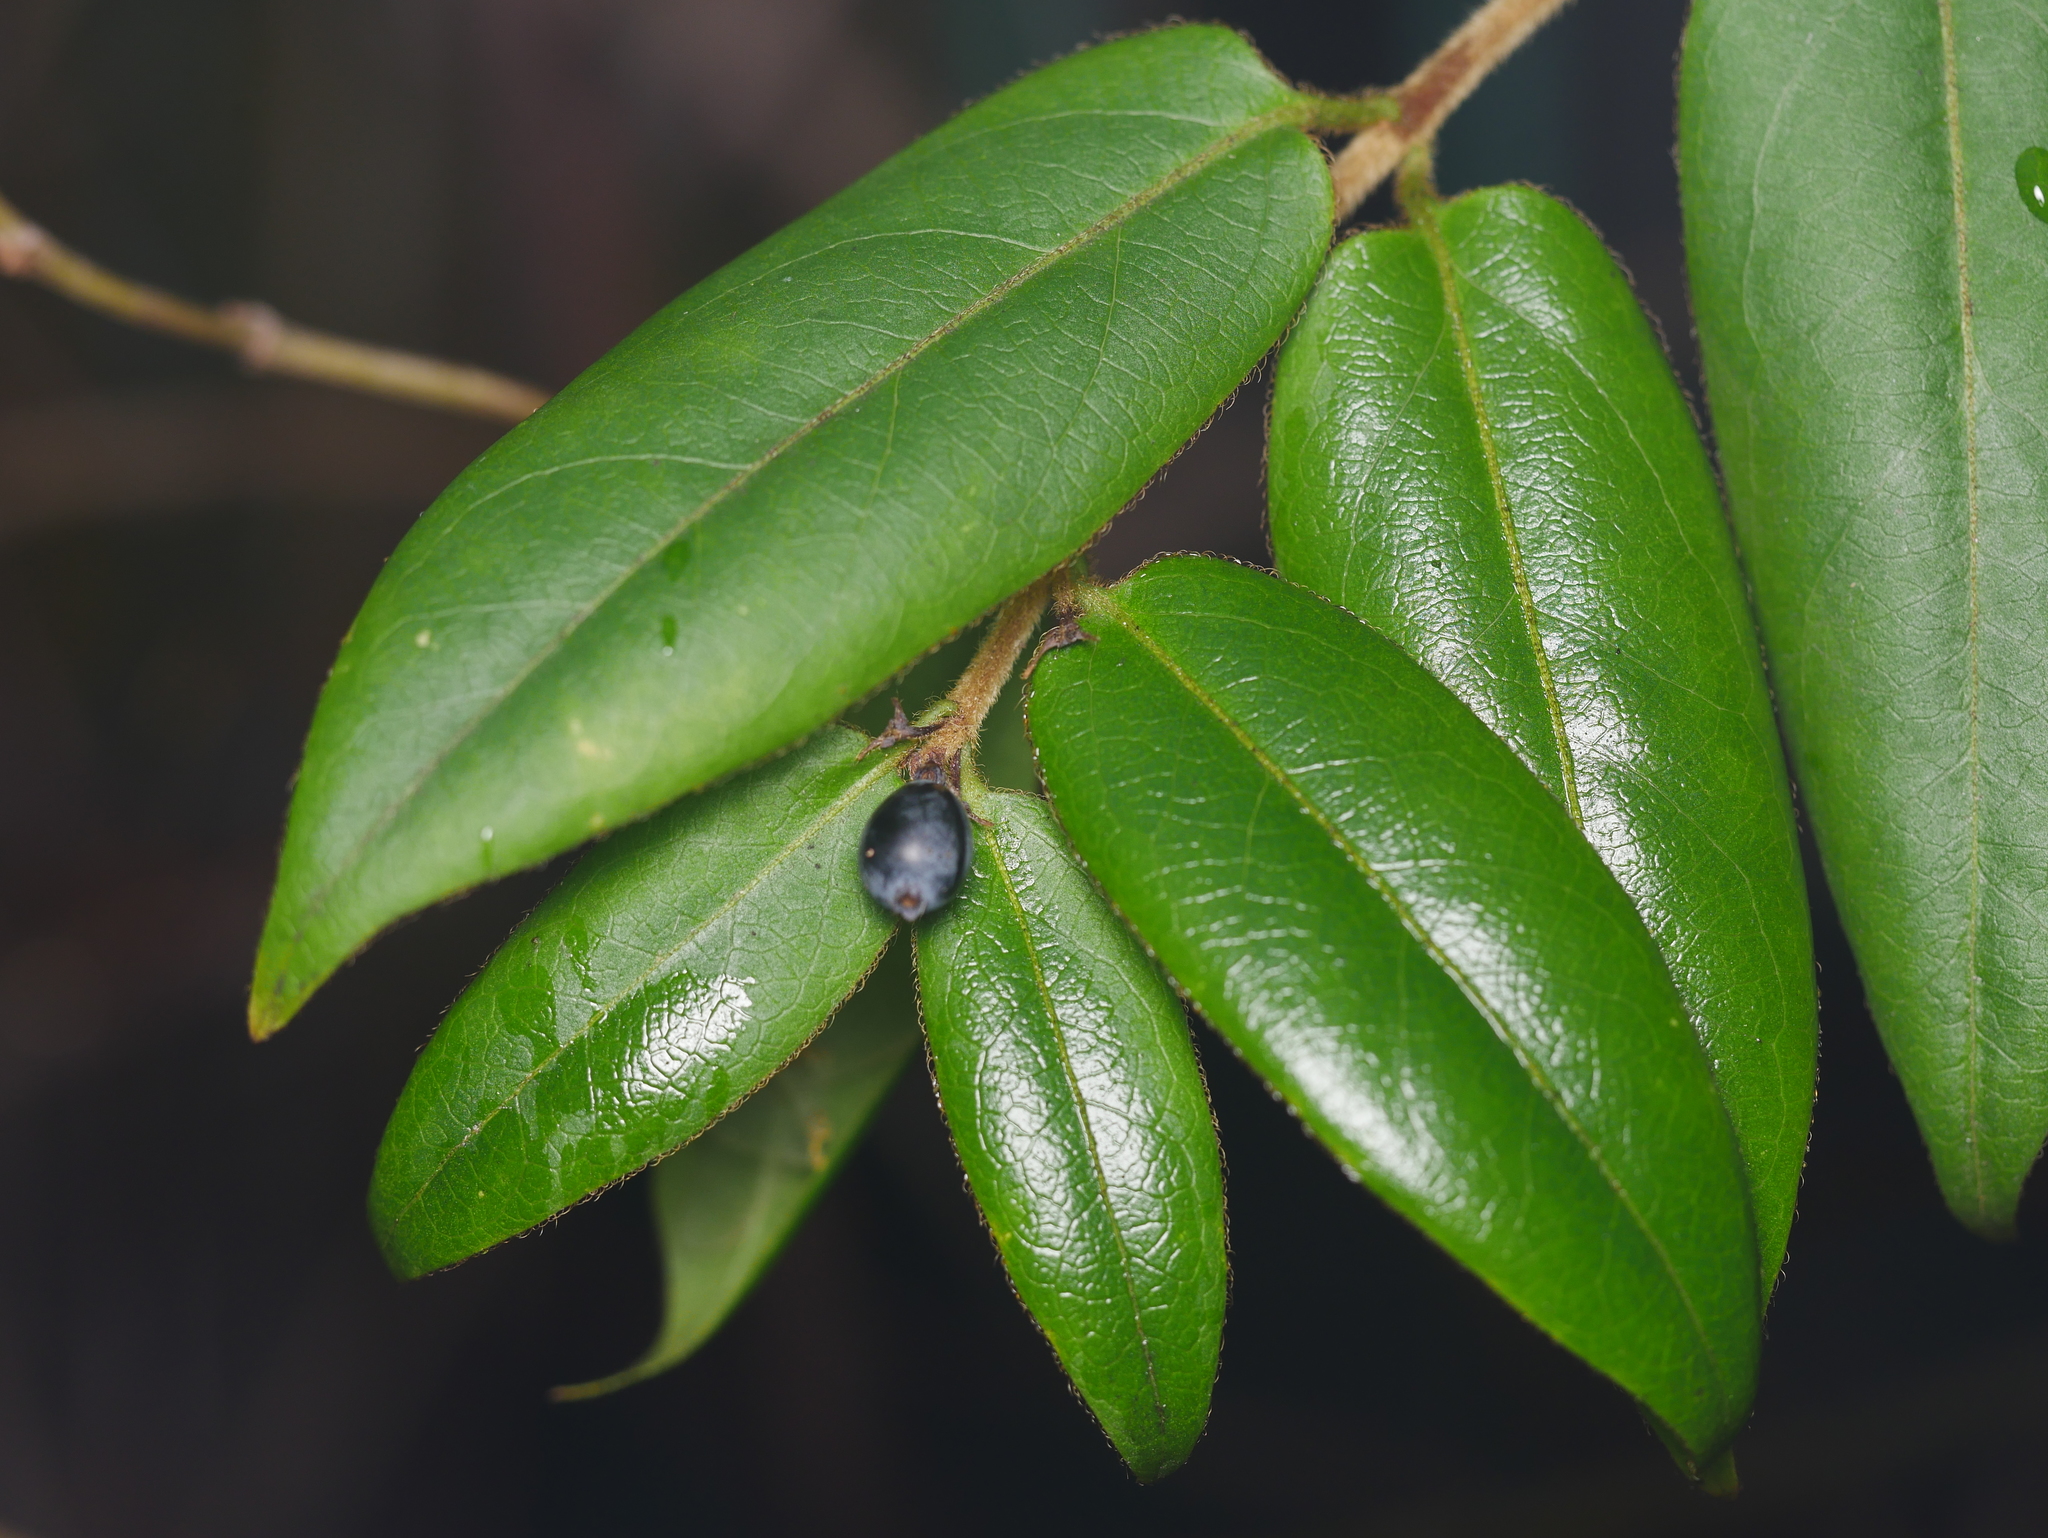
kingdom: Plantae
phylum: Tracheophyta
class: Magnoliopsida
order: Dipsacales
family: Caprifoliaceae
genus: Lonicera
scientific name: Lonicera acuminata
